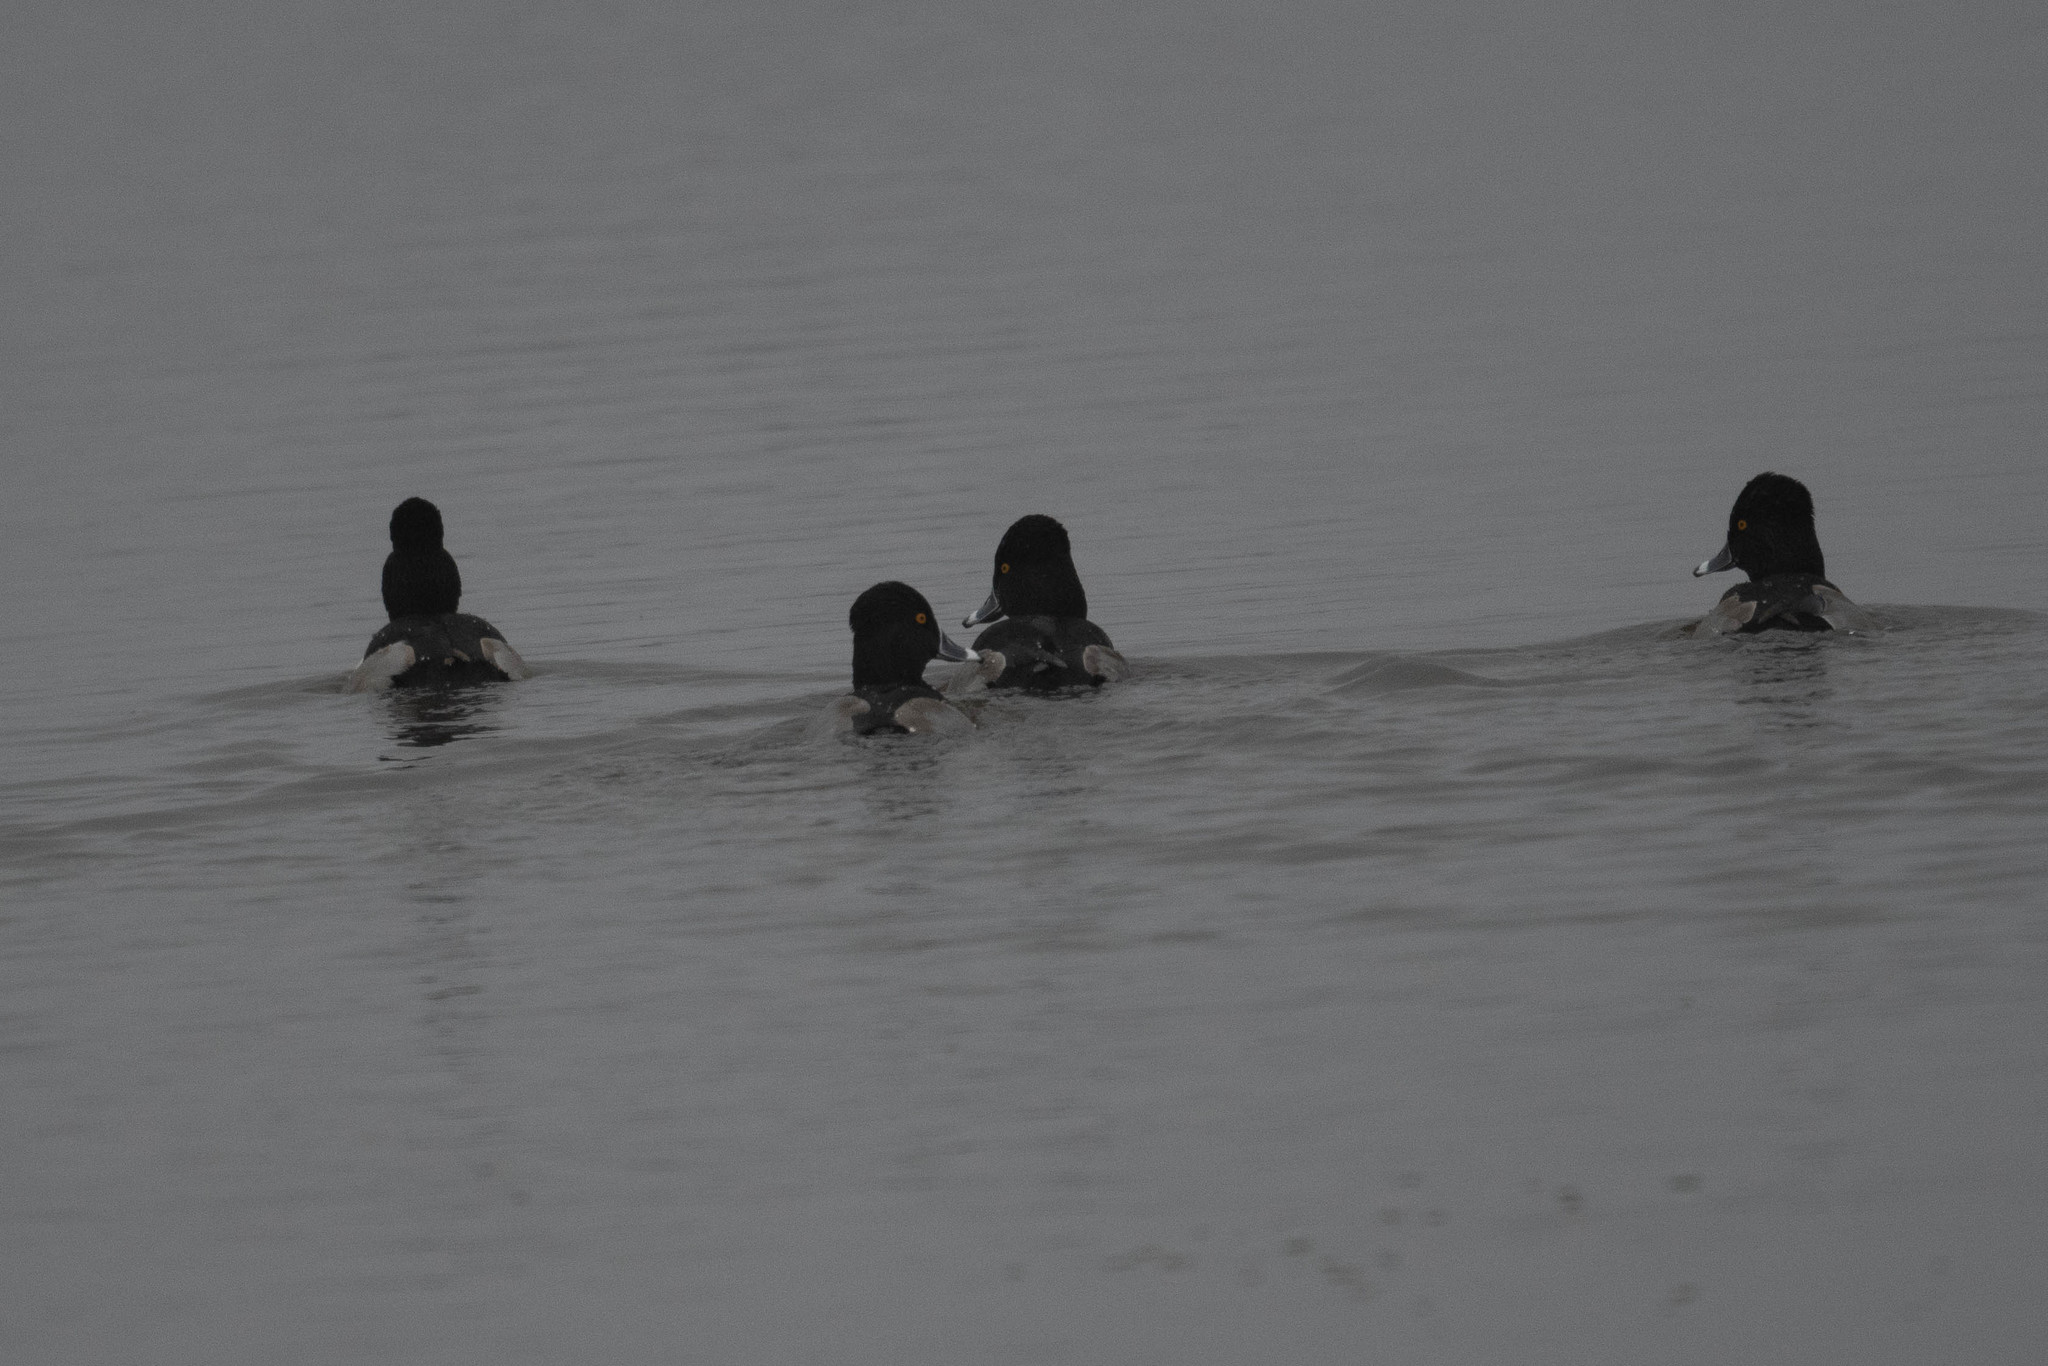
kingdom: Animalia
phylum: Chordata
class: Aves
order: Anseriformes
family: Anatidae
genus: Aythya
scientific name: Aythya collaris
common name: Ring-necked duck
